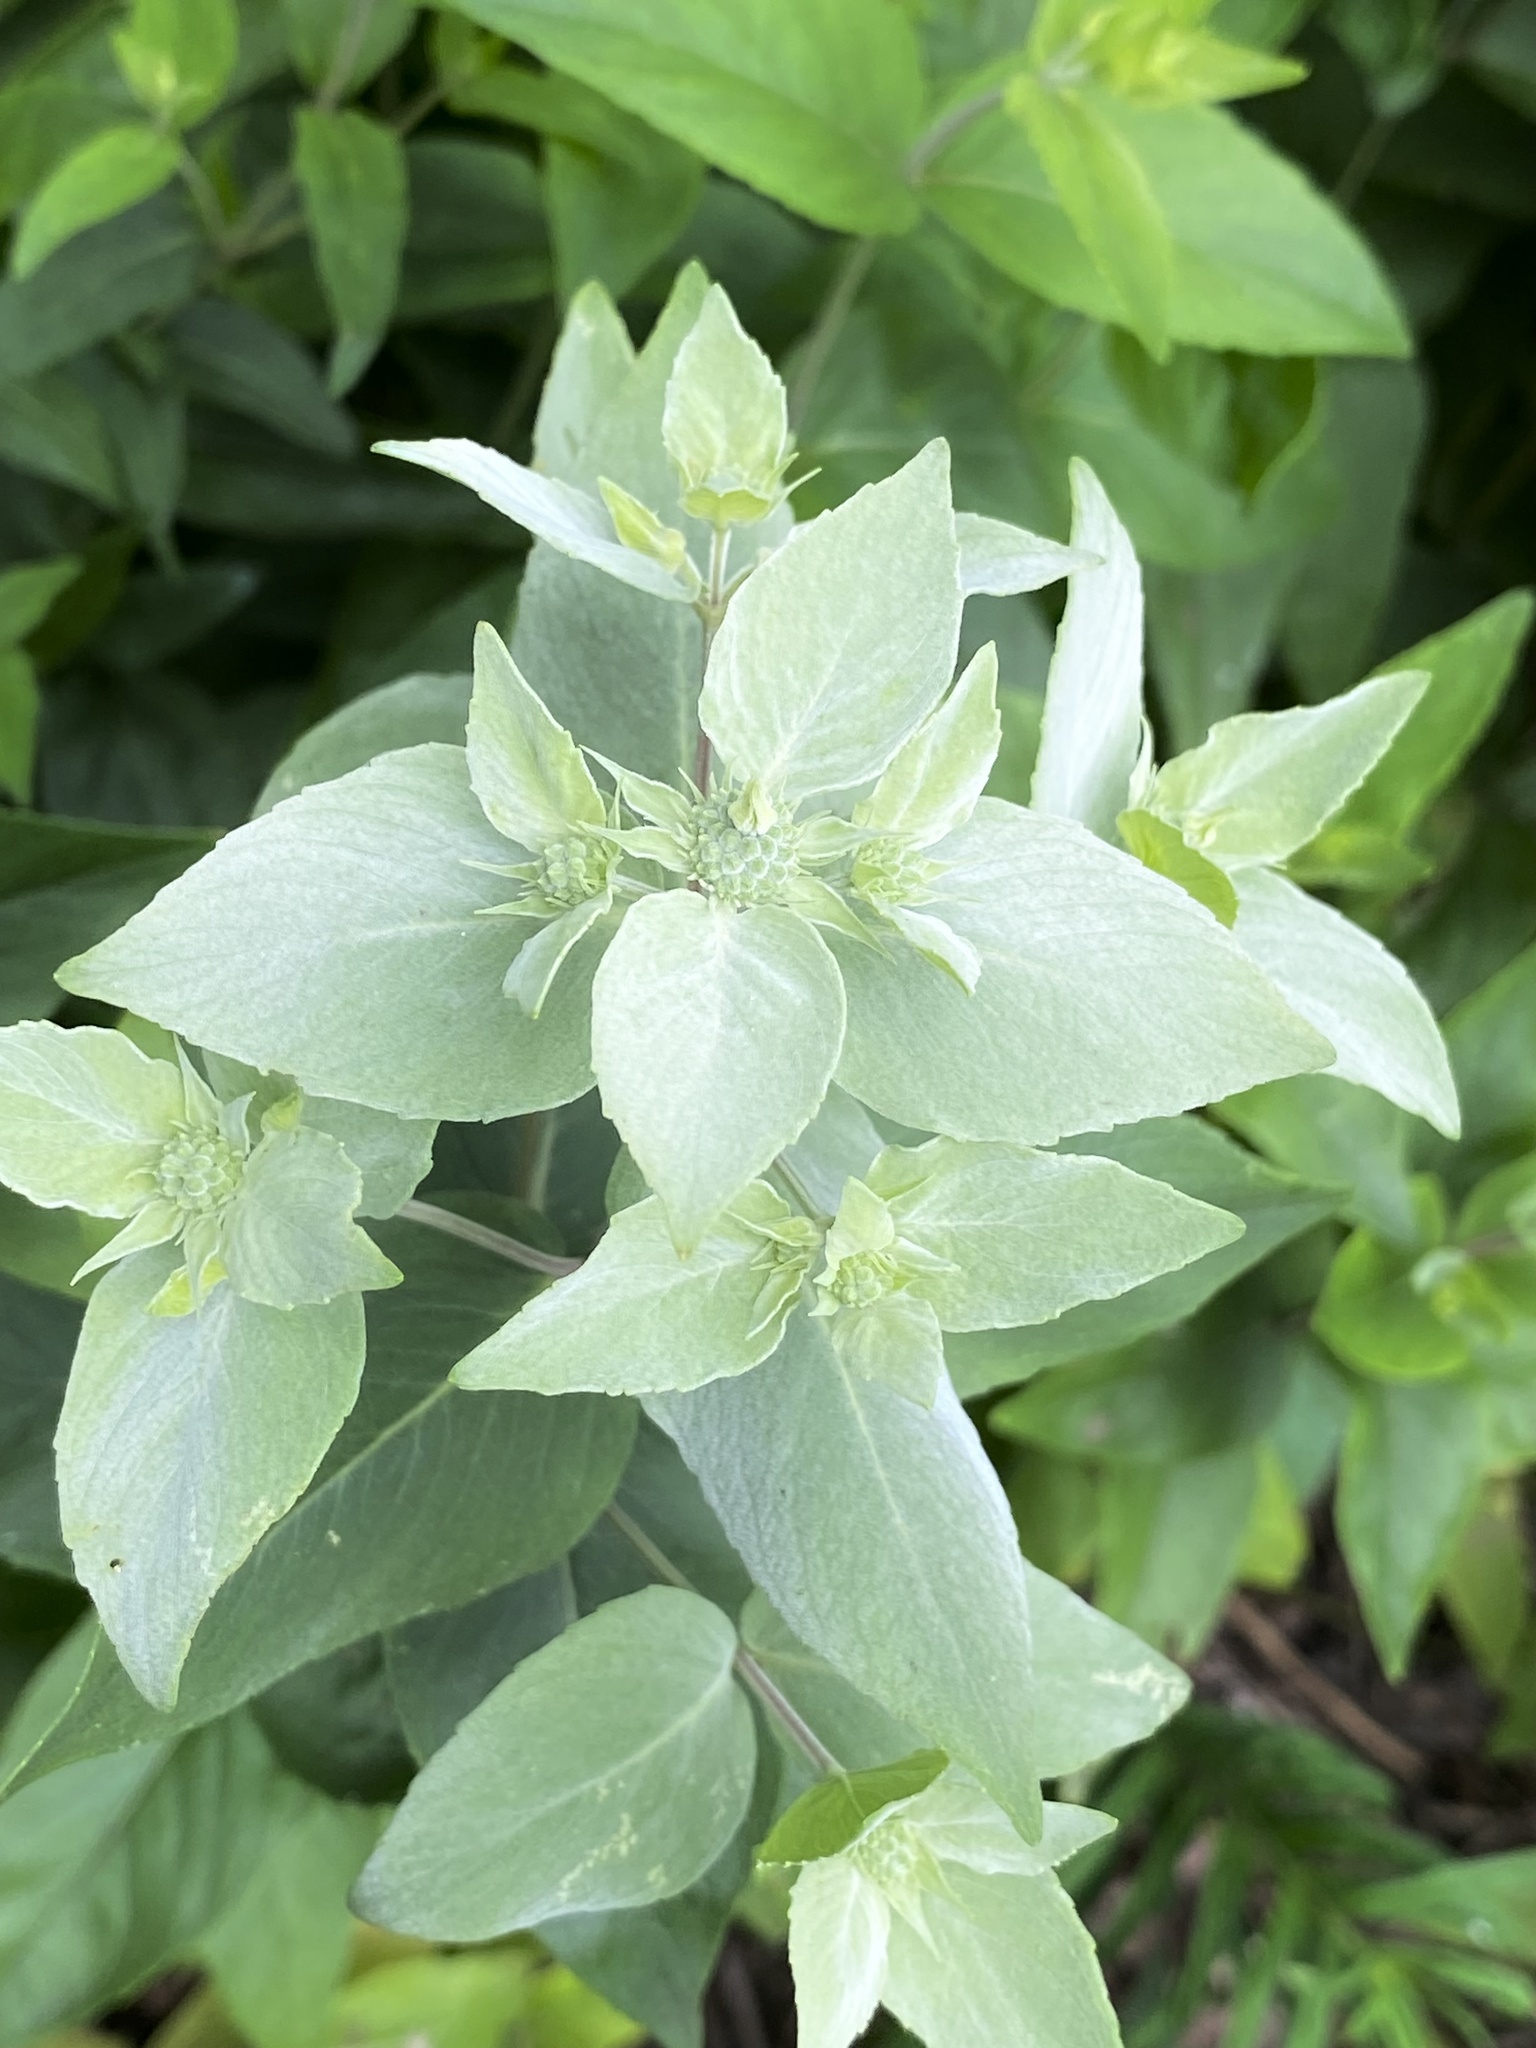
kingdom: Plantae
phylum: Tracheophyta
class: Magnoliopsida
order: Lamiales
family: Lamiaceae
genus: Pycnanthemum
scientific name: Pycnanthemum muticum
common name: Blunt mountain-mint
